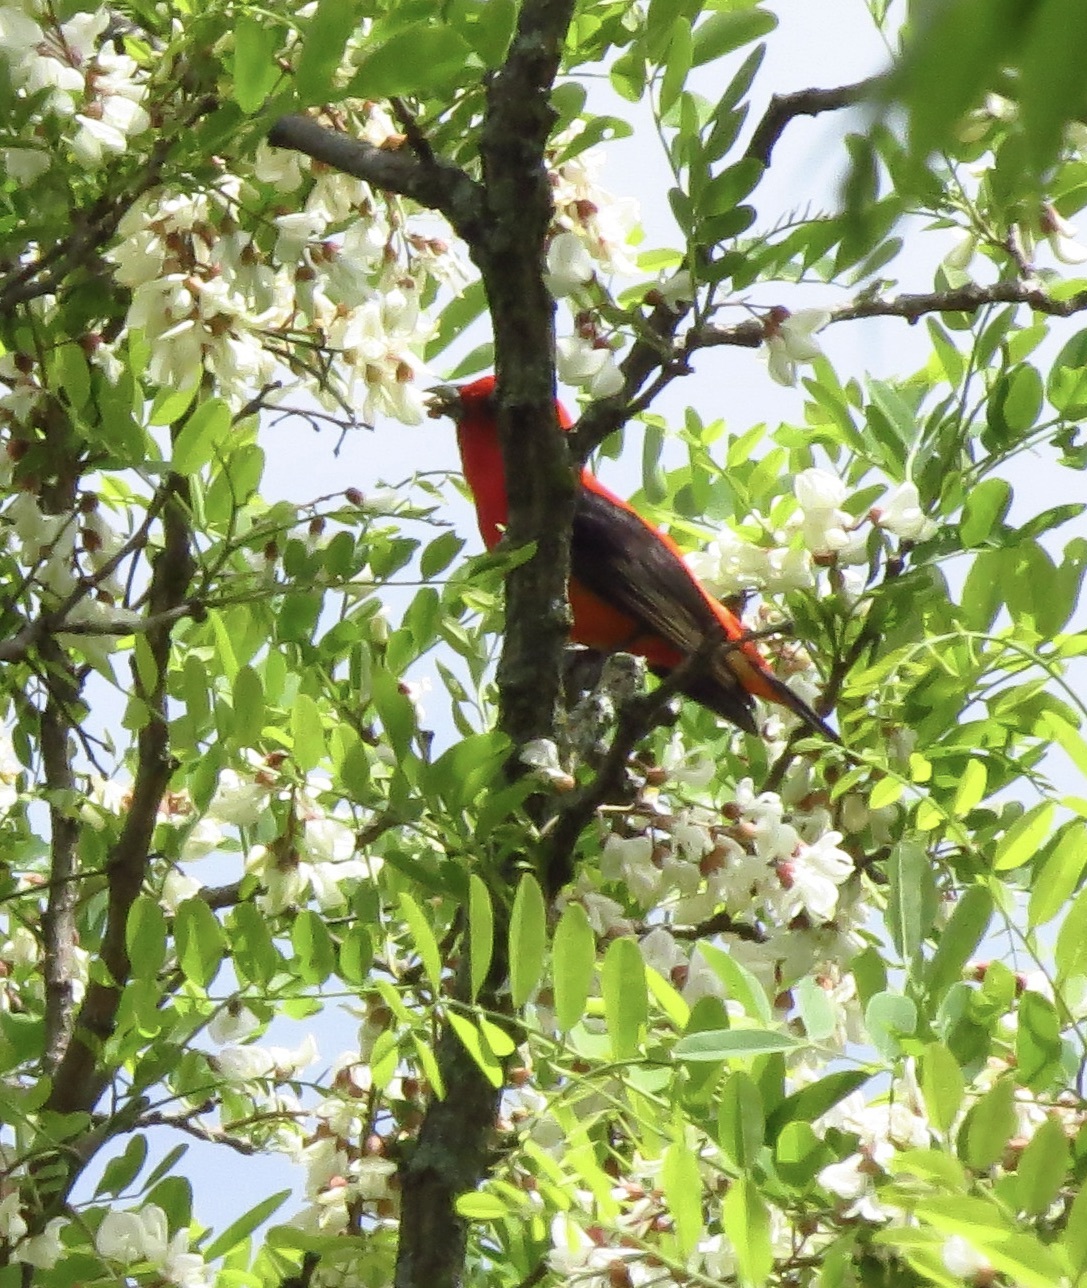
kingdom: Animalia
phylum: Chordata
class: Aves
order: Passeriformes
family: Cardinalidae
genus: Piranga
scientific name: Piranga olivacea
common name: Scarlet tanager
